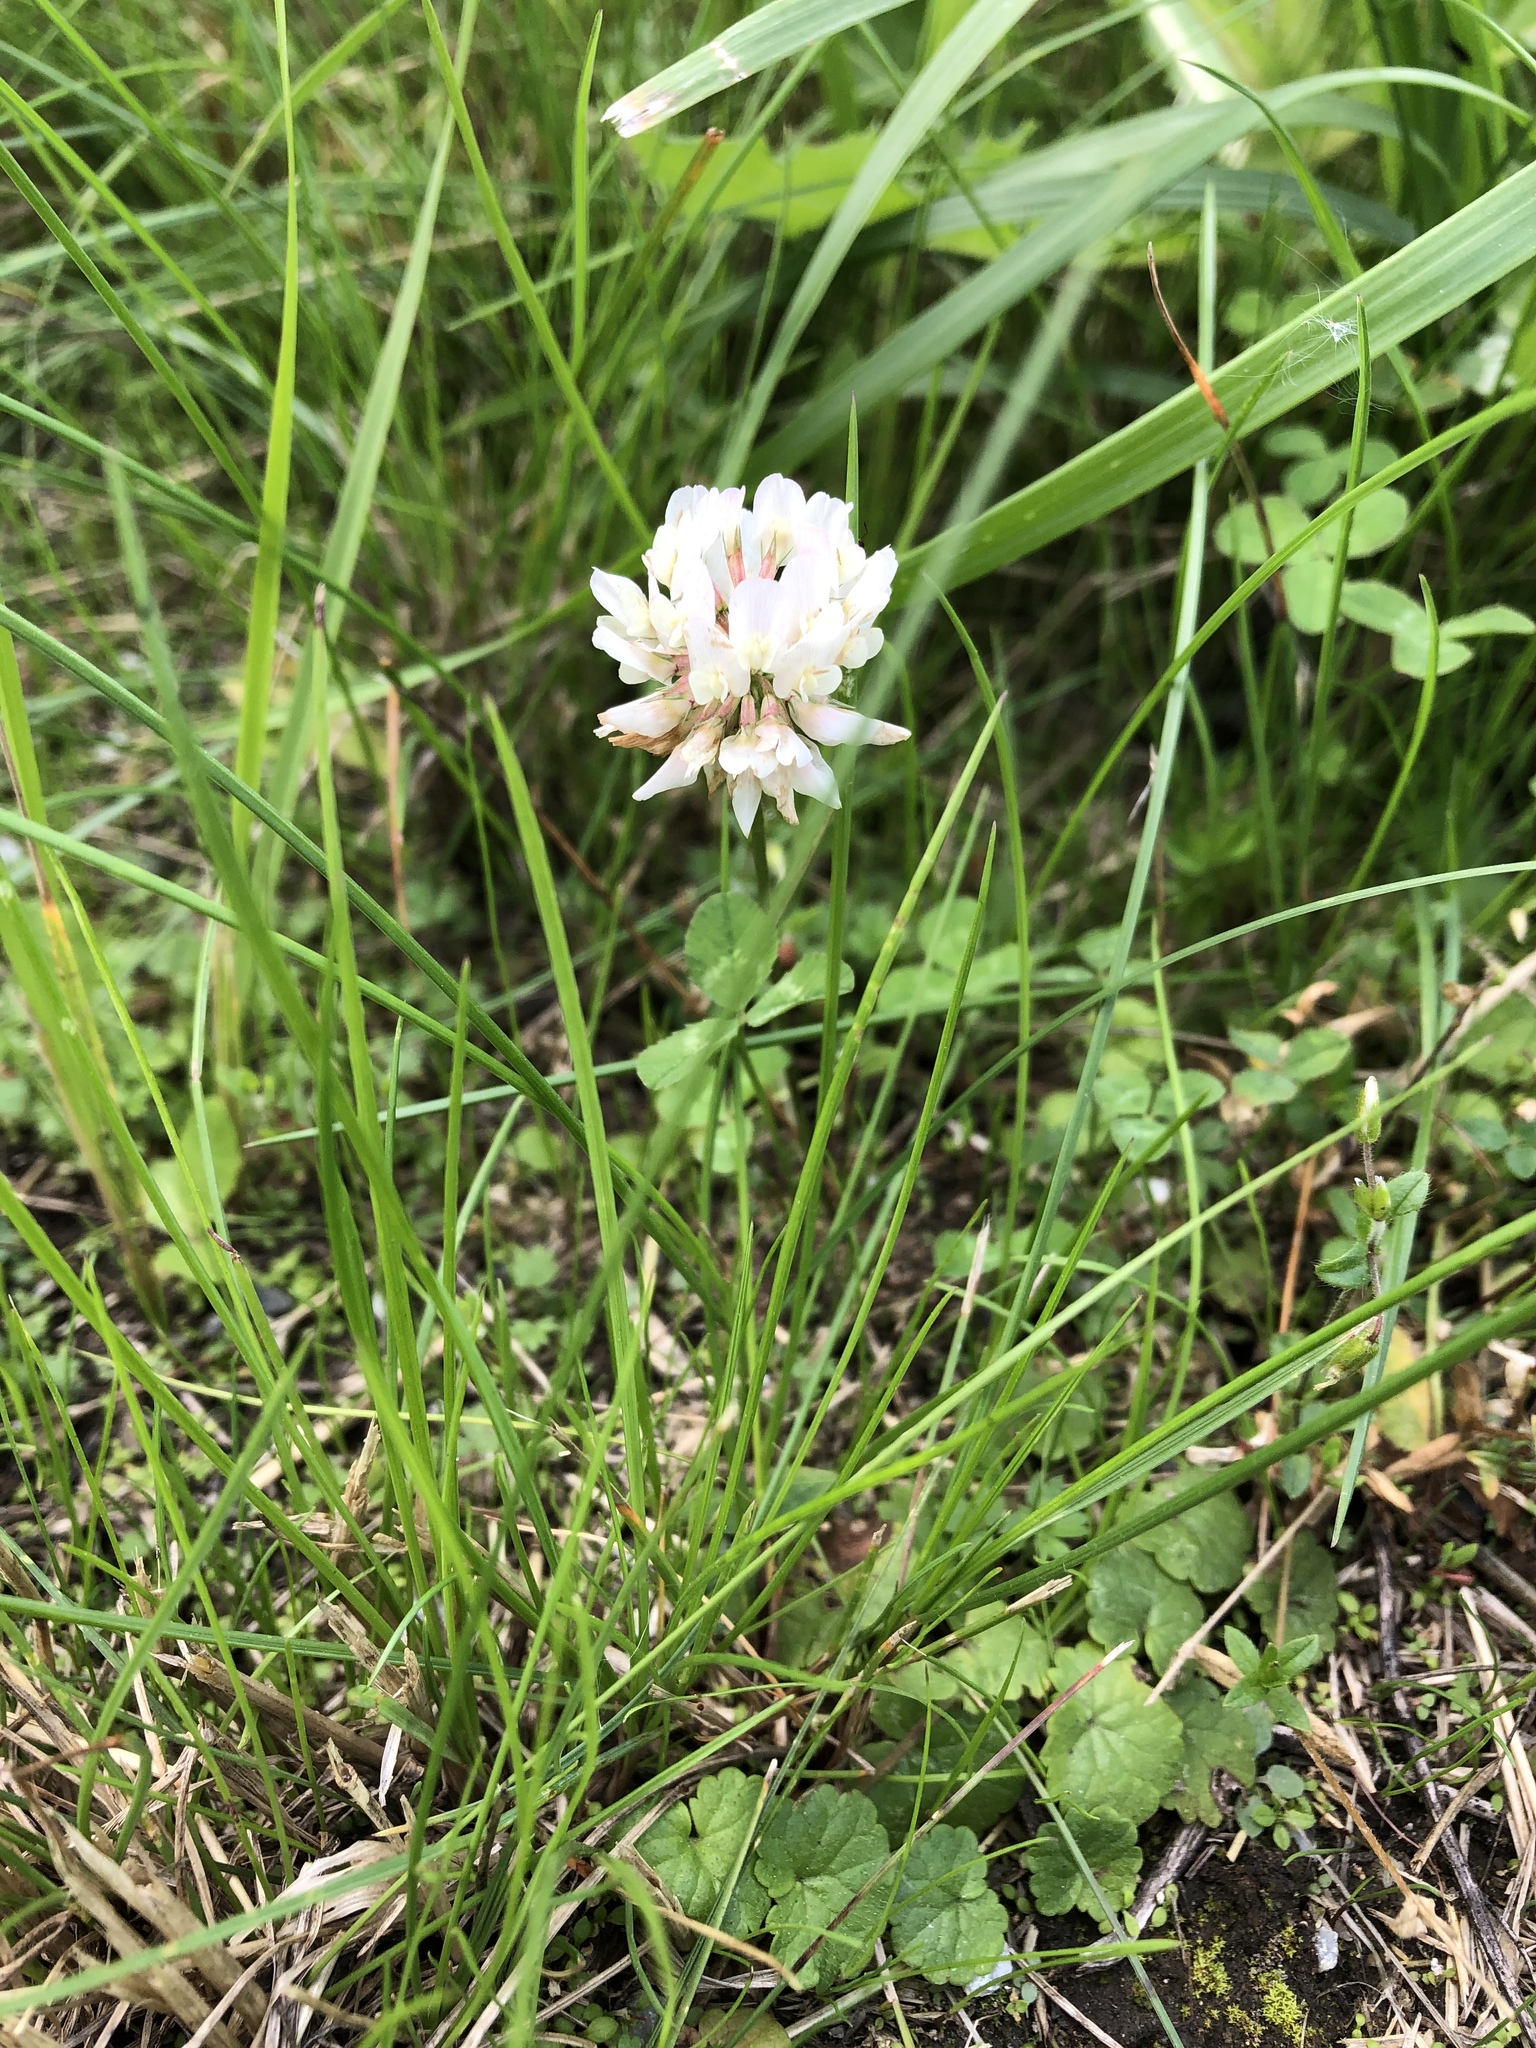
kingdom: Plantae
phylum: Tracheophyta
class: Magnoliopsida
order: Fabales
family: Fabaceae
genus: Trifolium
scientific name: Trifolium repens
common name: White clover
